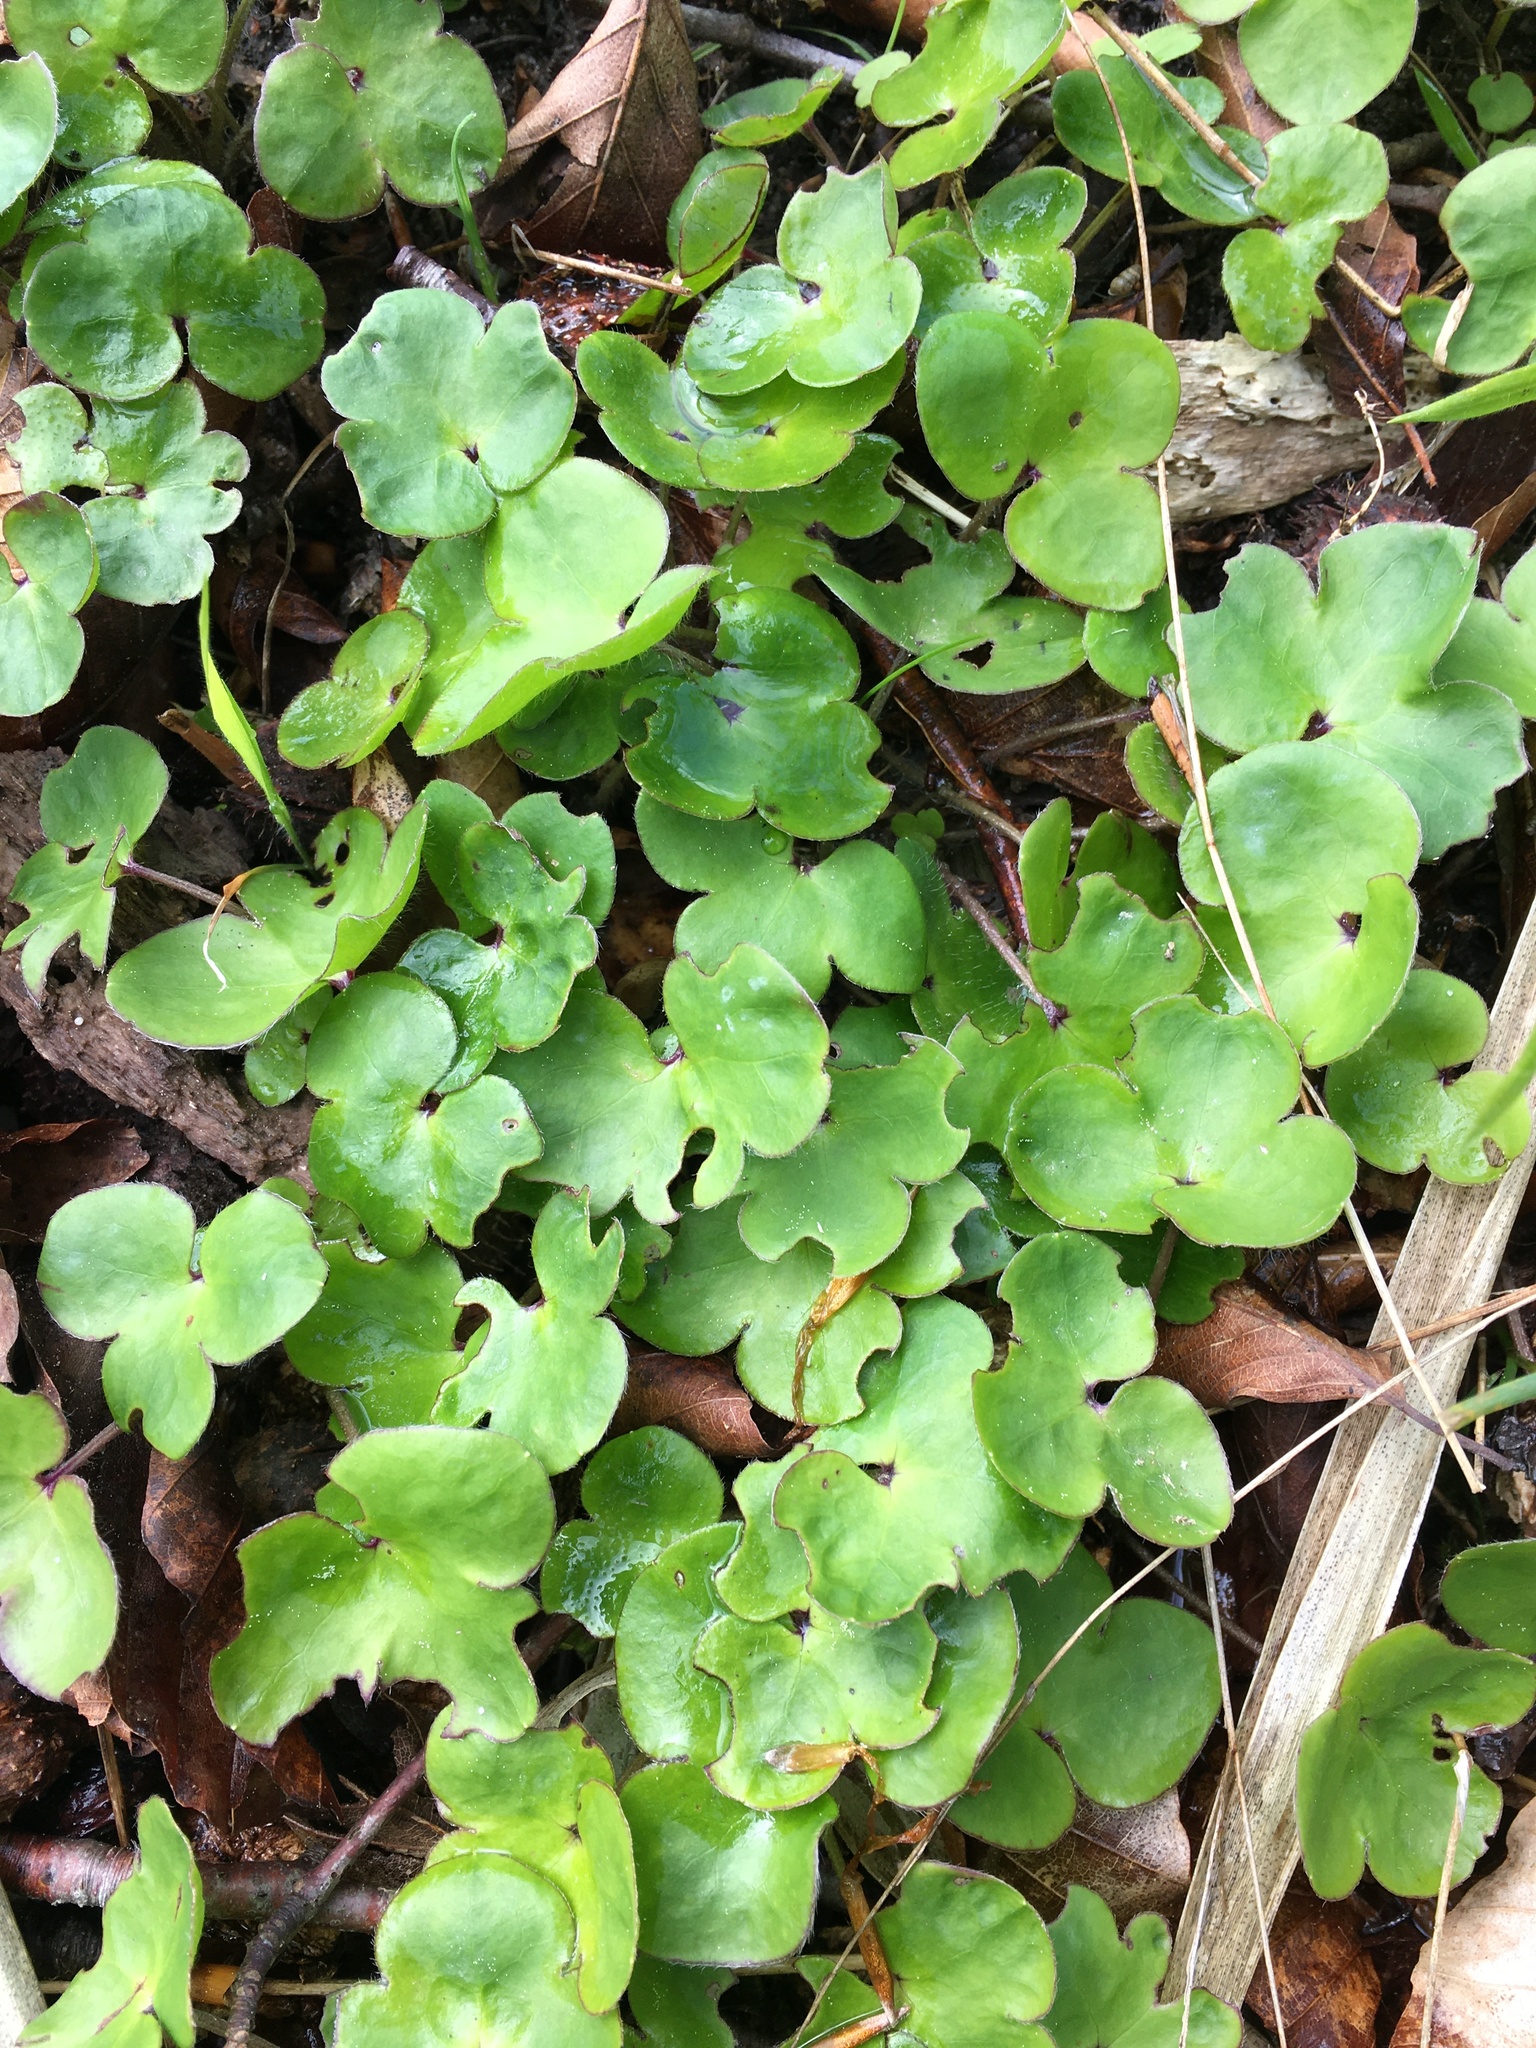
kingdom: Plantae
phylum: Tracheophyta
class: Magnoliopsida
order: Ranunculales
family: Ranunculaceae
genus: Hepatica
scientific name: Hepatica nobilis
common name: Liverleaf
